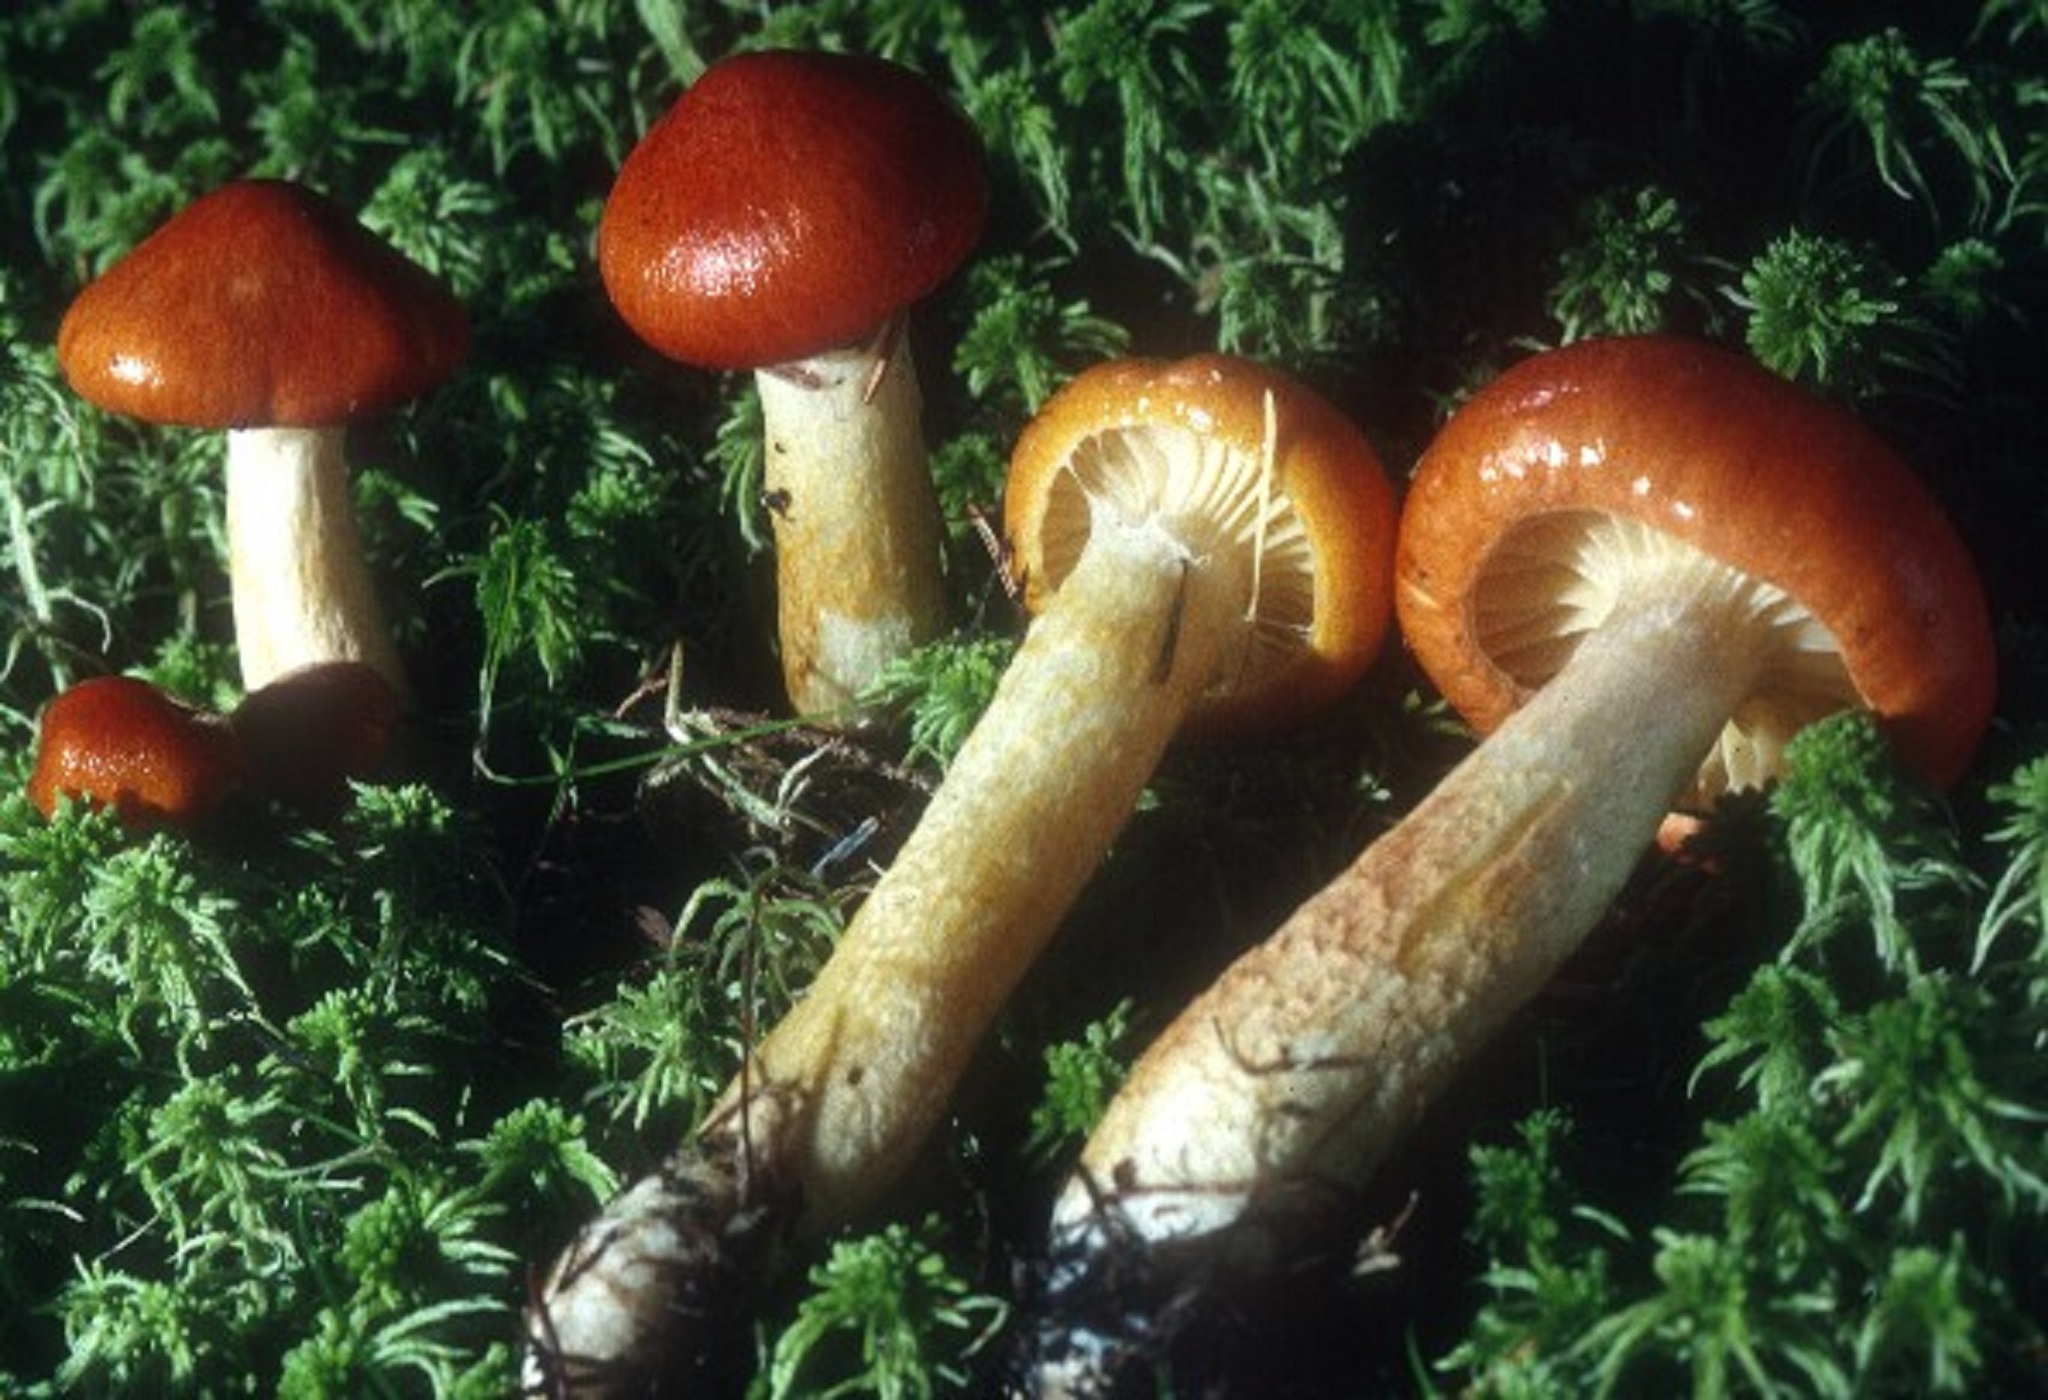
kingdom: Fungi
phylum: Basidiomycota
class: Agaricomycetes
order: Agaricales
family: Hygrophoraceae
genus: Hygrophorus
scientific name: Hygrophorus speciosus
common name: Splendid woodwax
